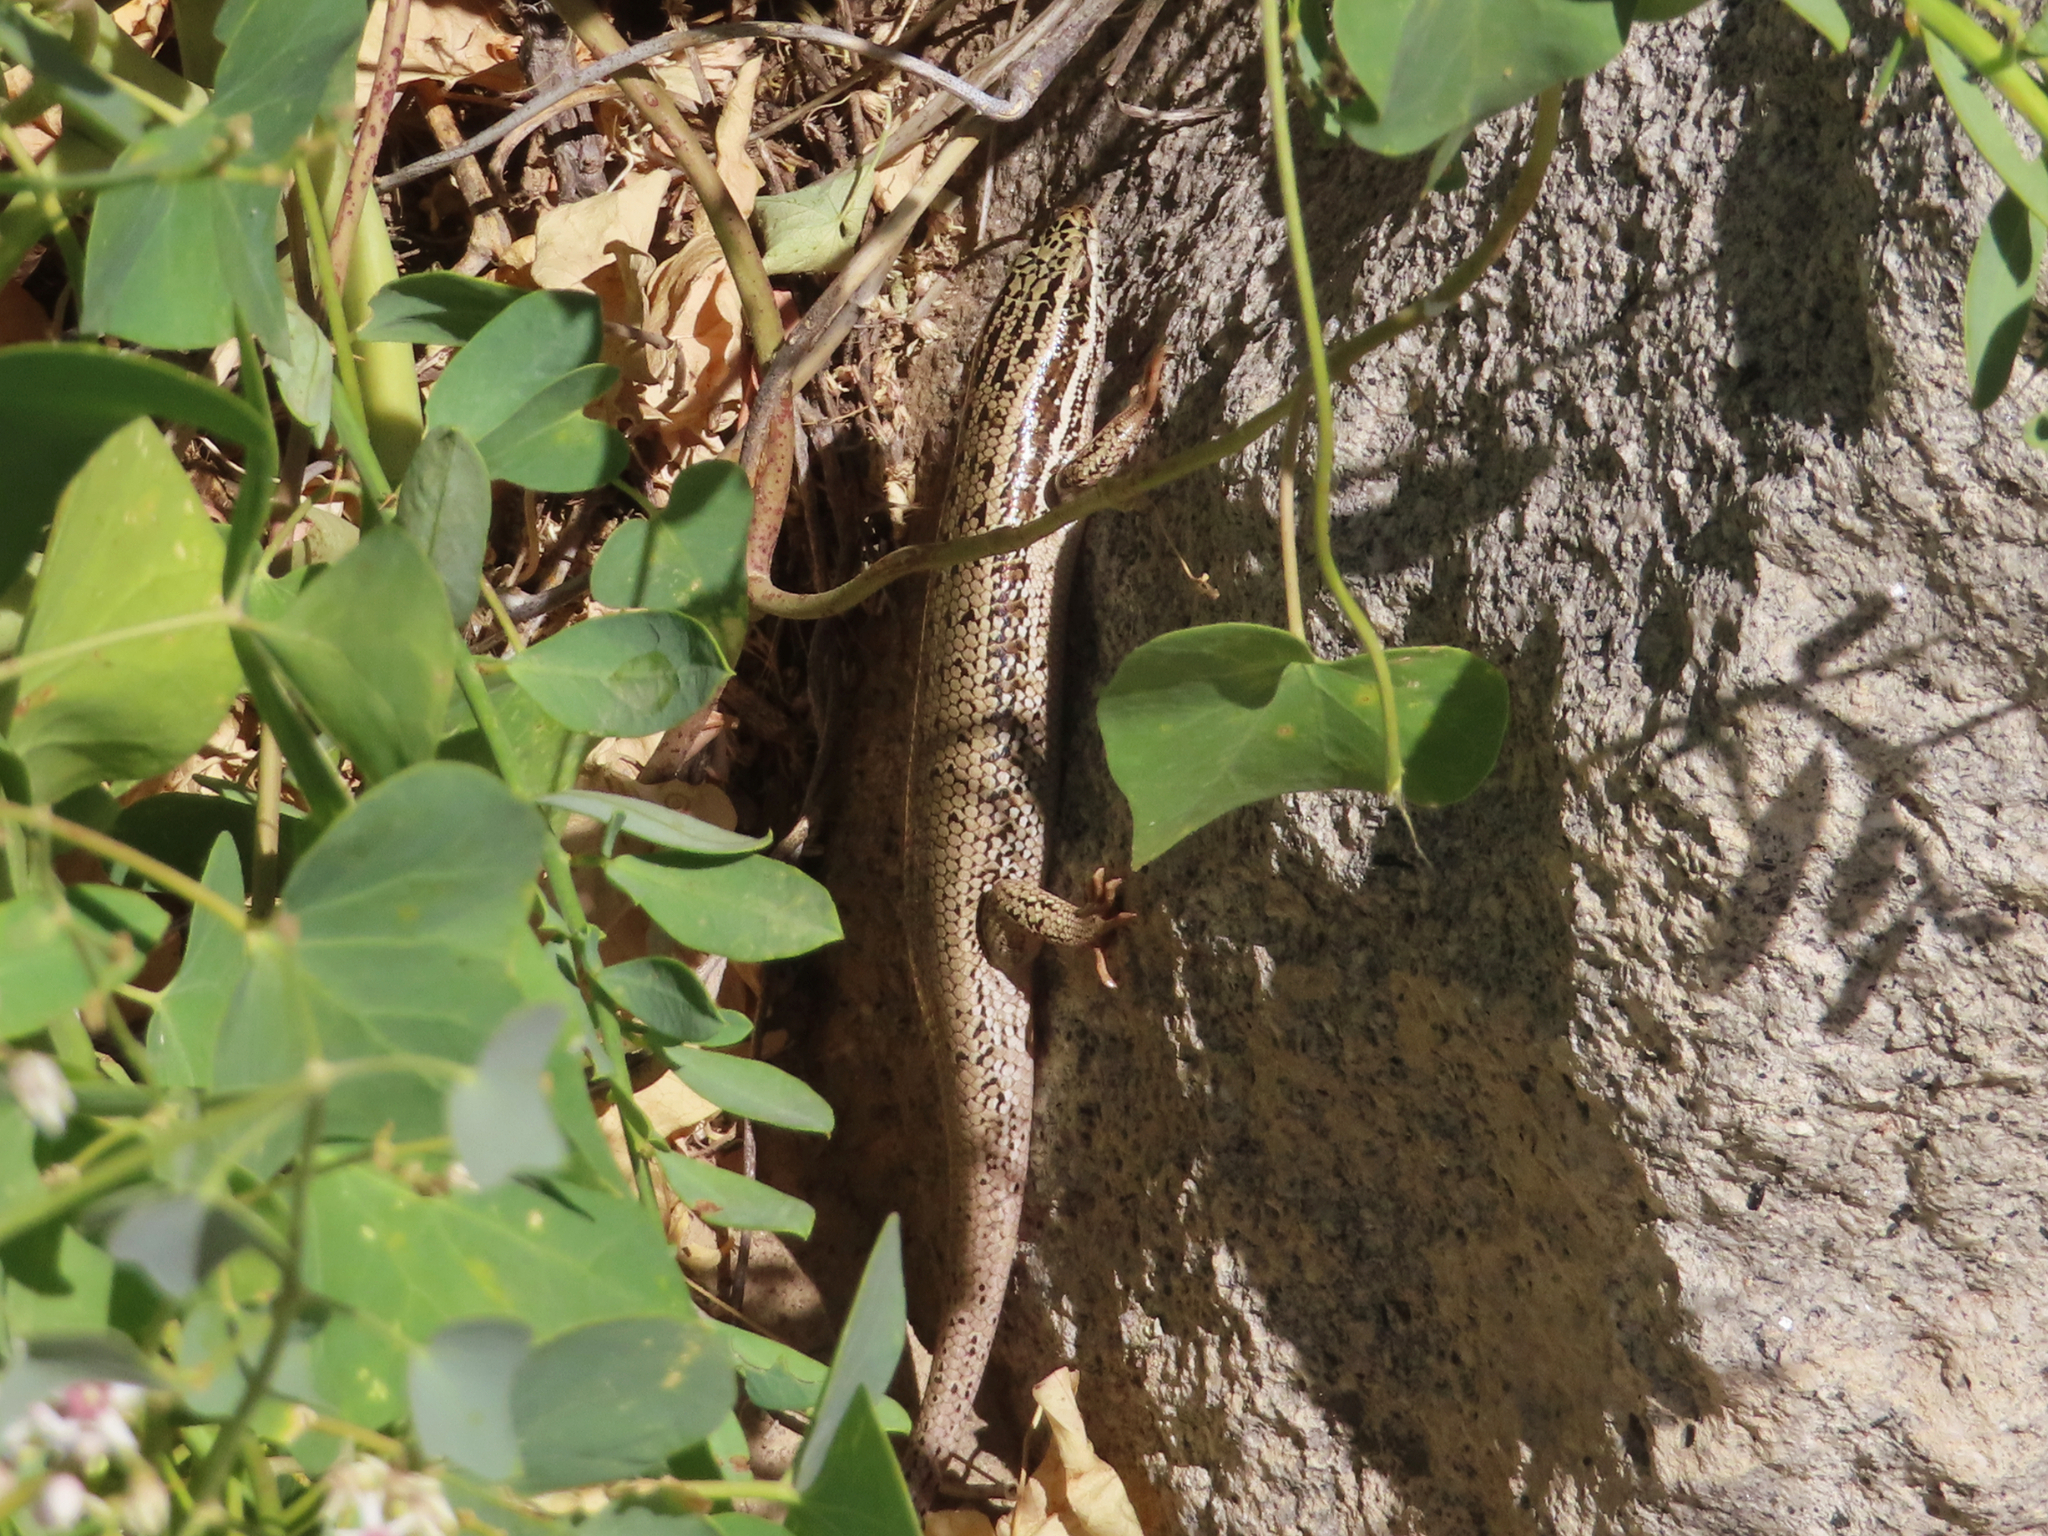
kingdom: Animalia
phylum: Chordata
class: Squamata
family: Scincidae
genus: Heremites
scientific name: Heremites septemtaeniatus
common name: Golden grass mabuya
